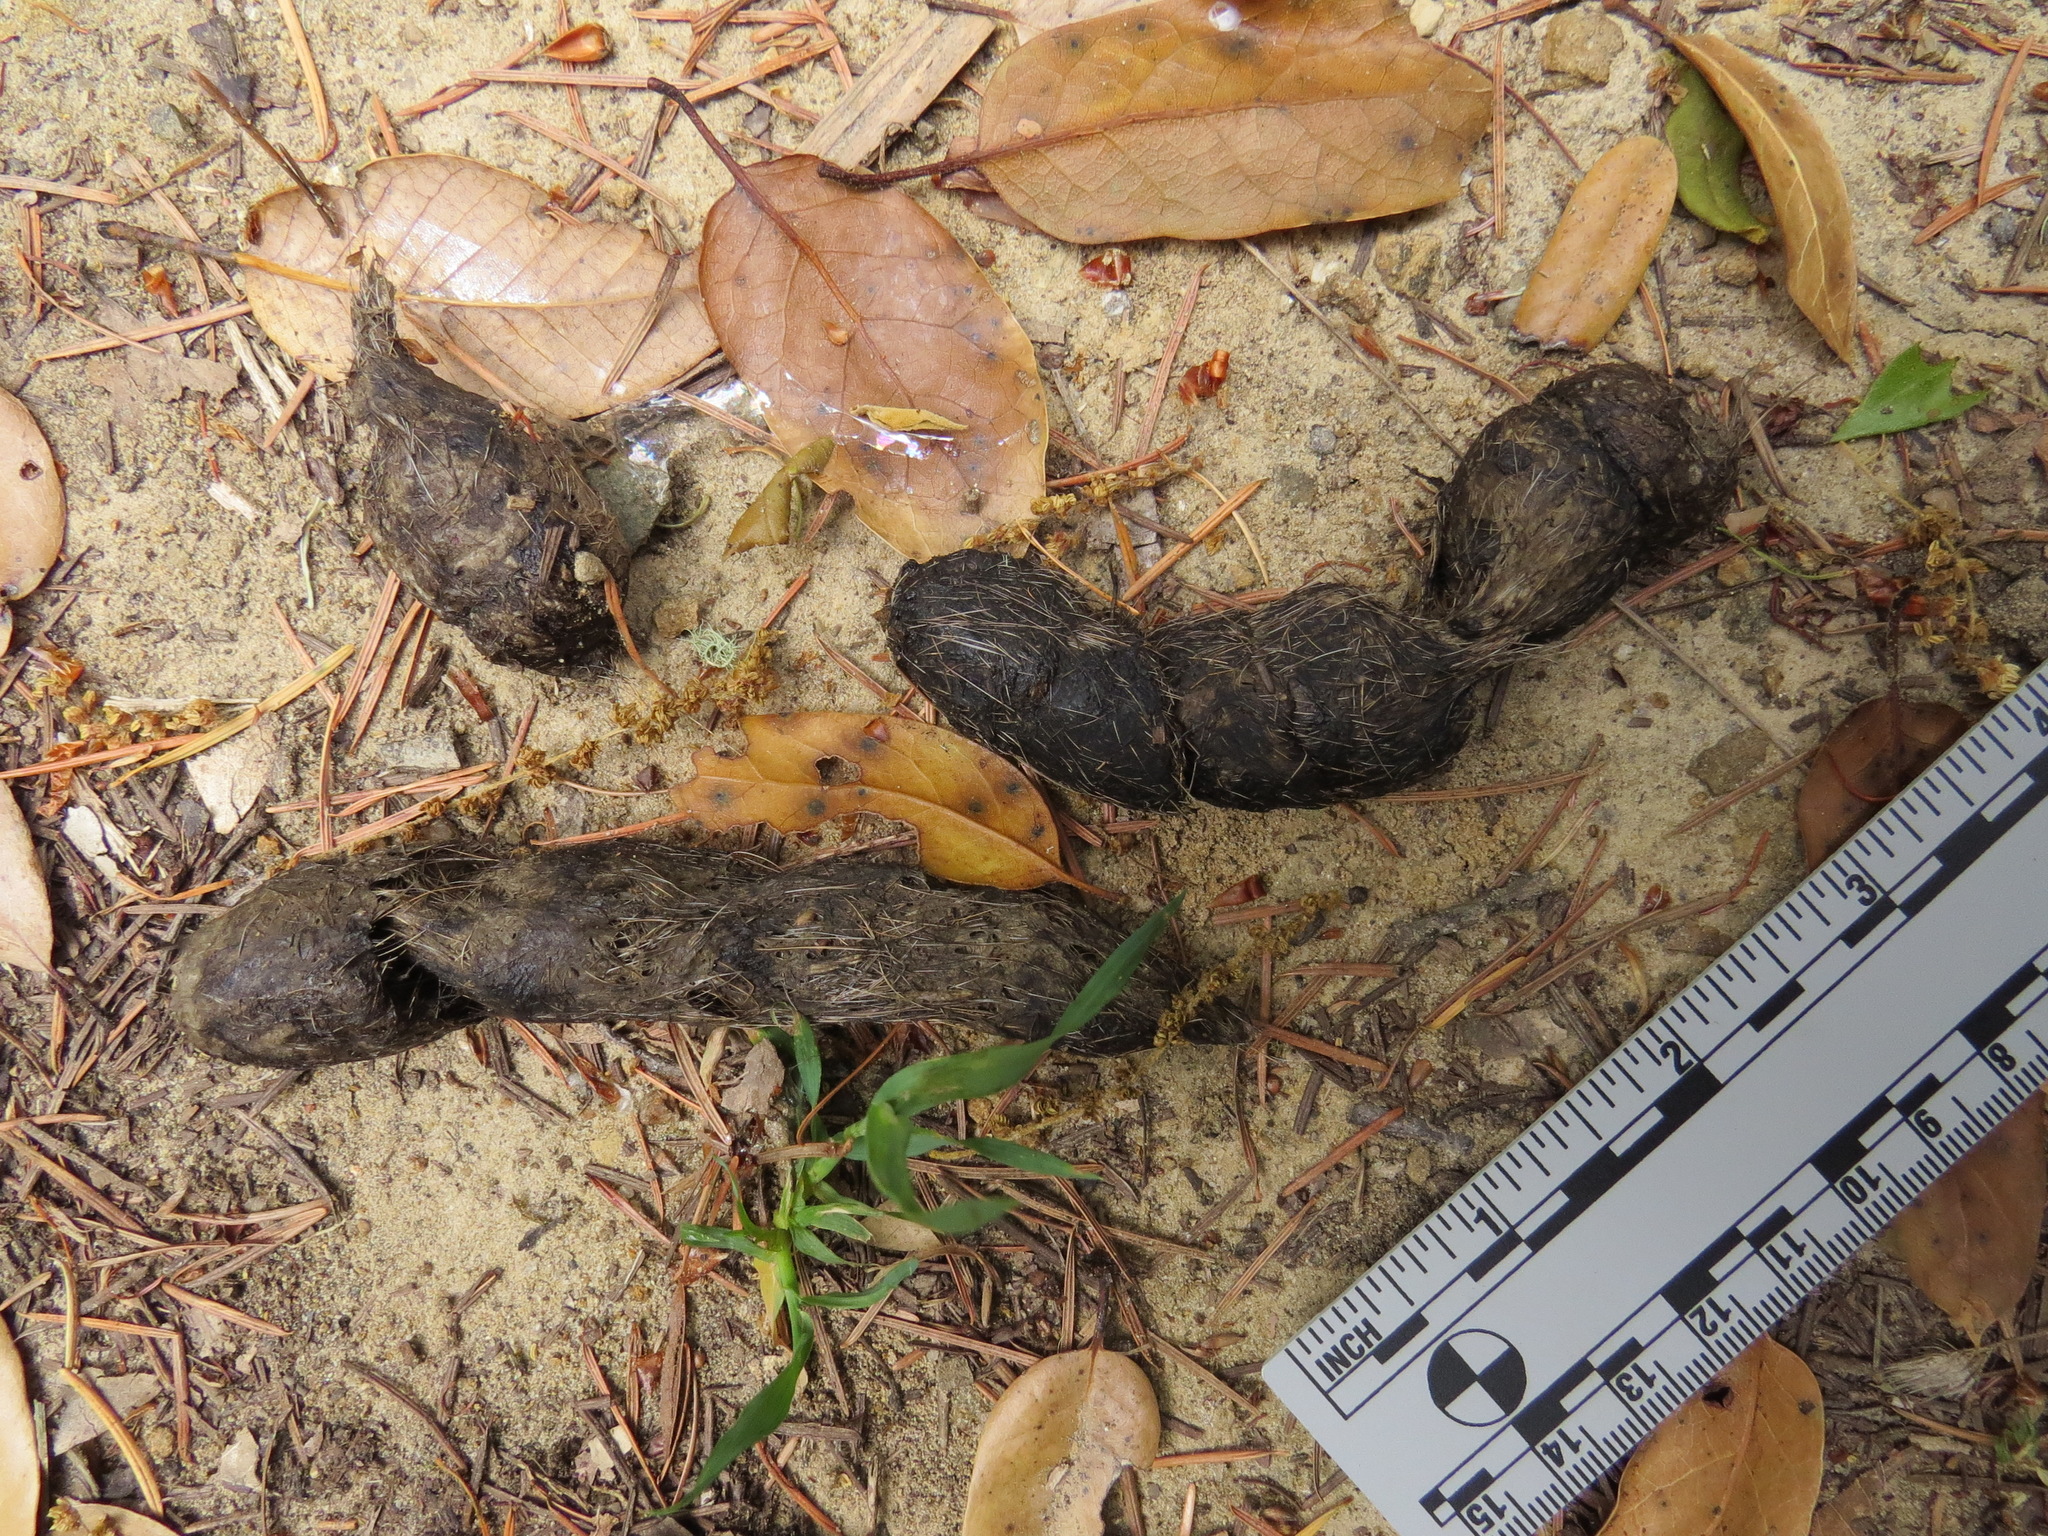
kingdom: Animalia
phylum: Chordata
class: Mammalia
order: Carnivora
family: Canidae
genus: Canis
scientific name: Canis latrans
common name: Coyote
